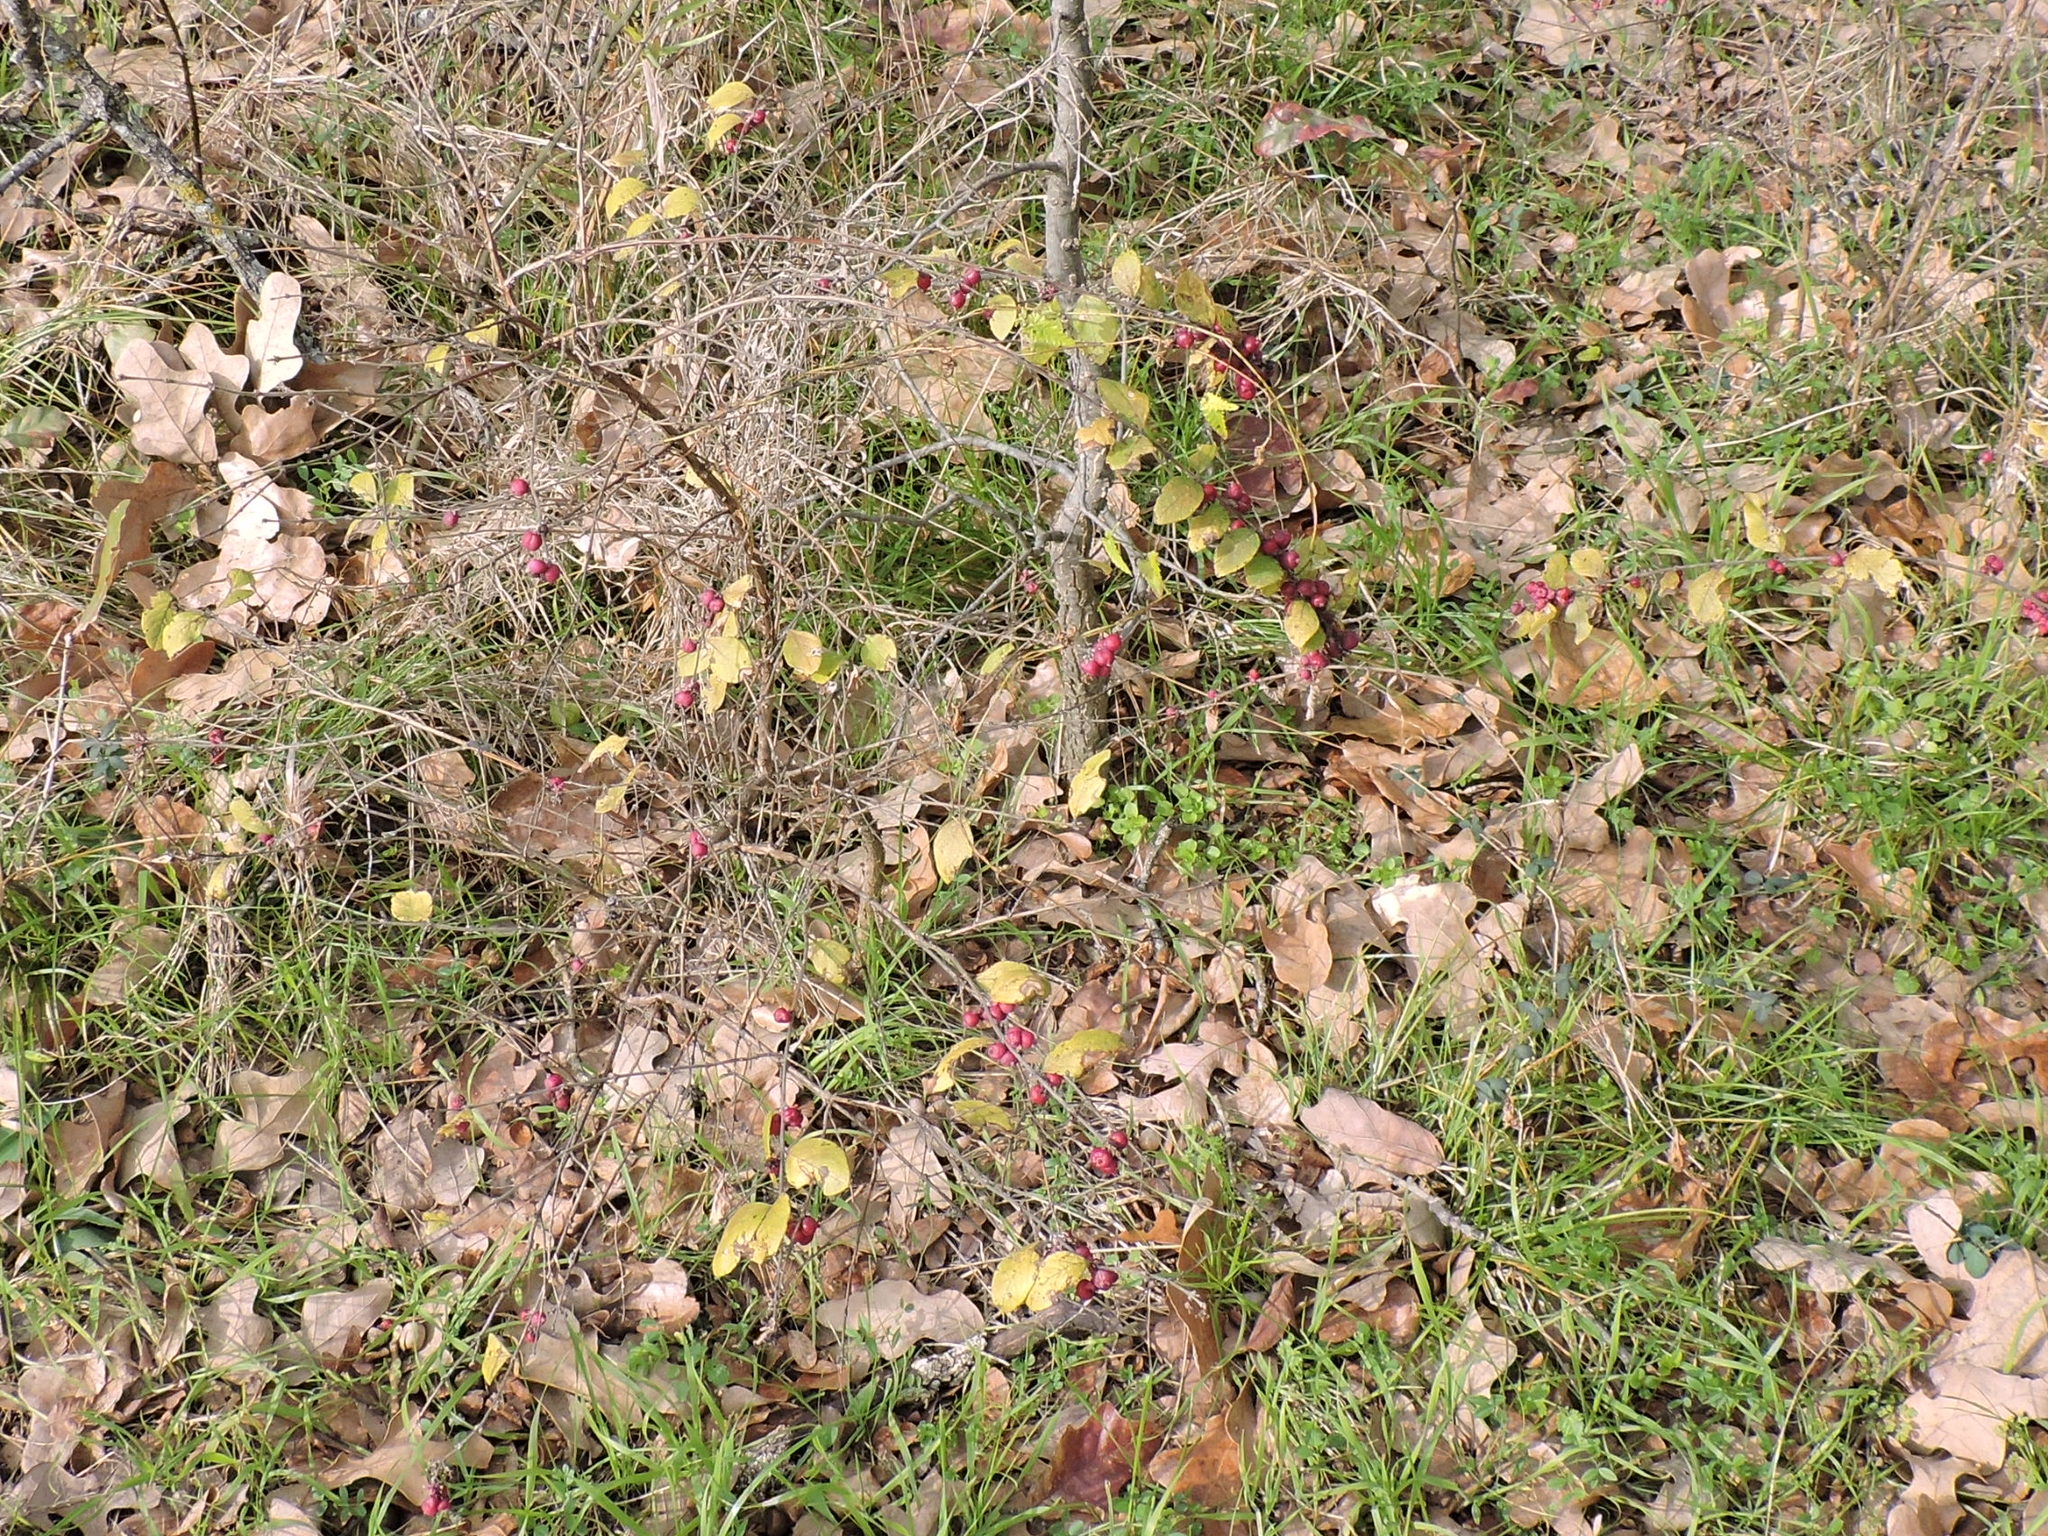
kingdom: Plantae
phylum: Tracheophyta
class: Magnoliopsida
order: Dipsacales
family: Caprifoliaceae
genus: Symphoricarpos
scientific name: Symphoricarpos orbiculatus
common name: Coralberry
